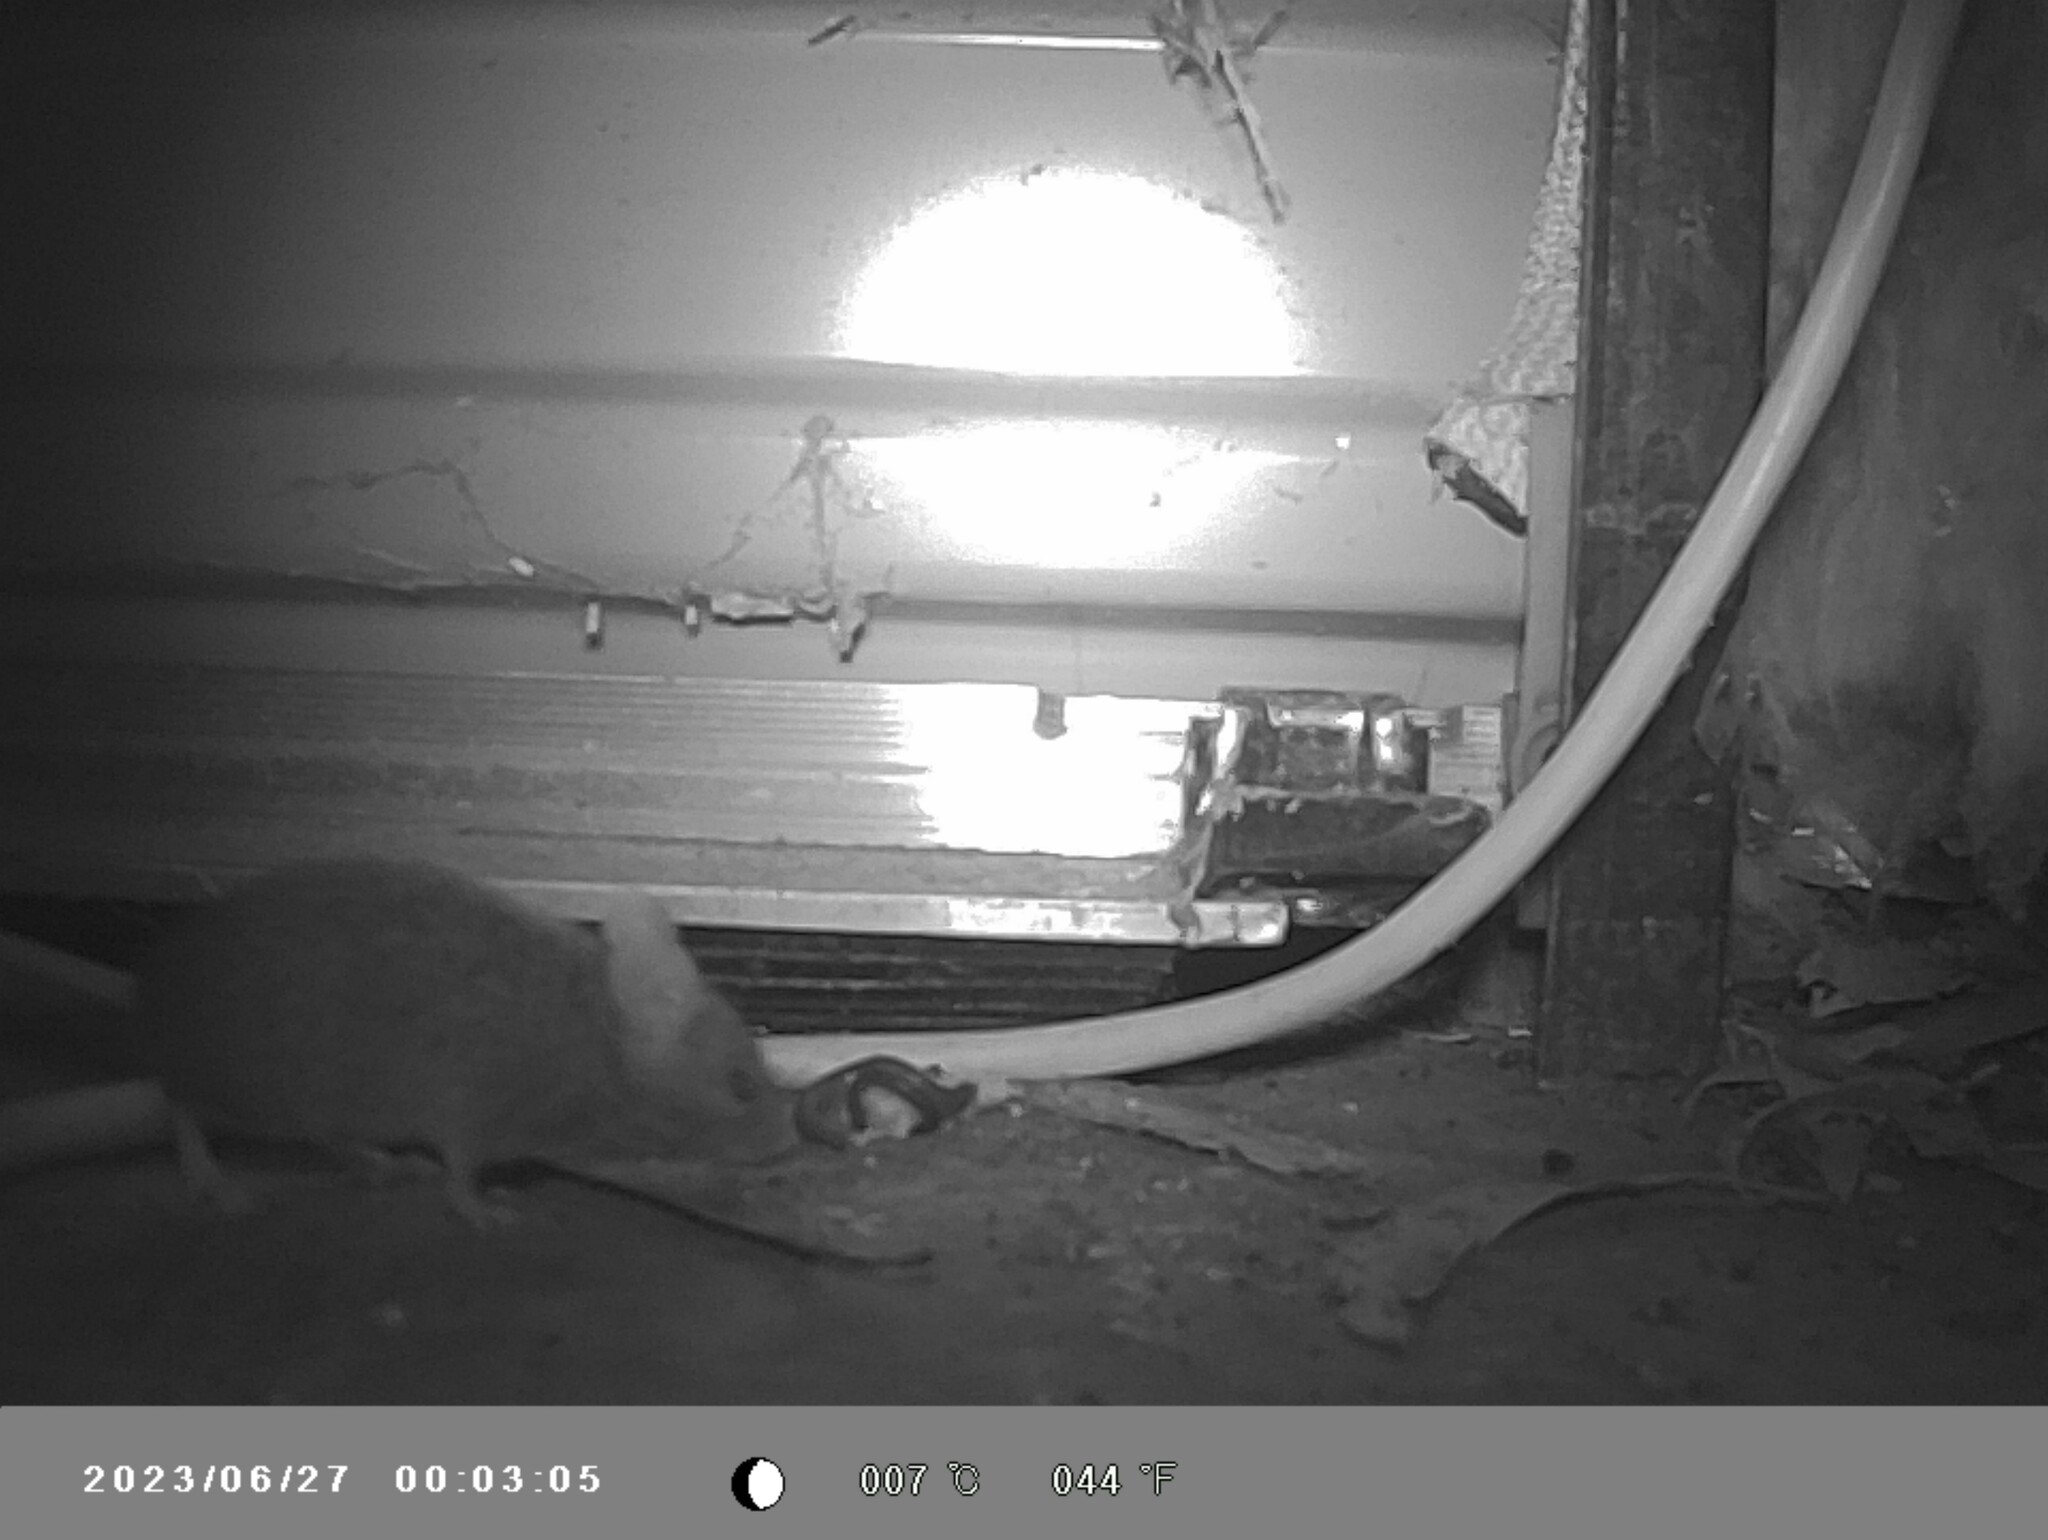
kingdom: Animalia
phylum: Chordata
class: Mammalia
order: Rodentia
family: Muridae
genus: Mus
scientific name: Mus musculus
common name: House mouse
